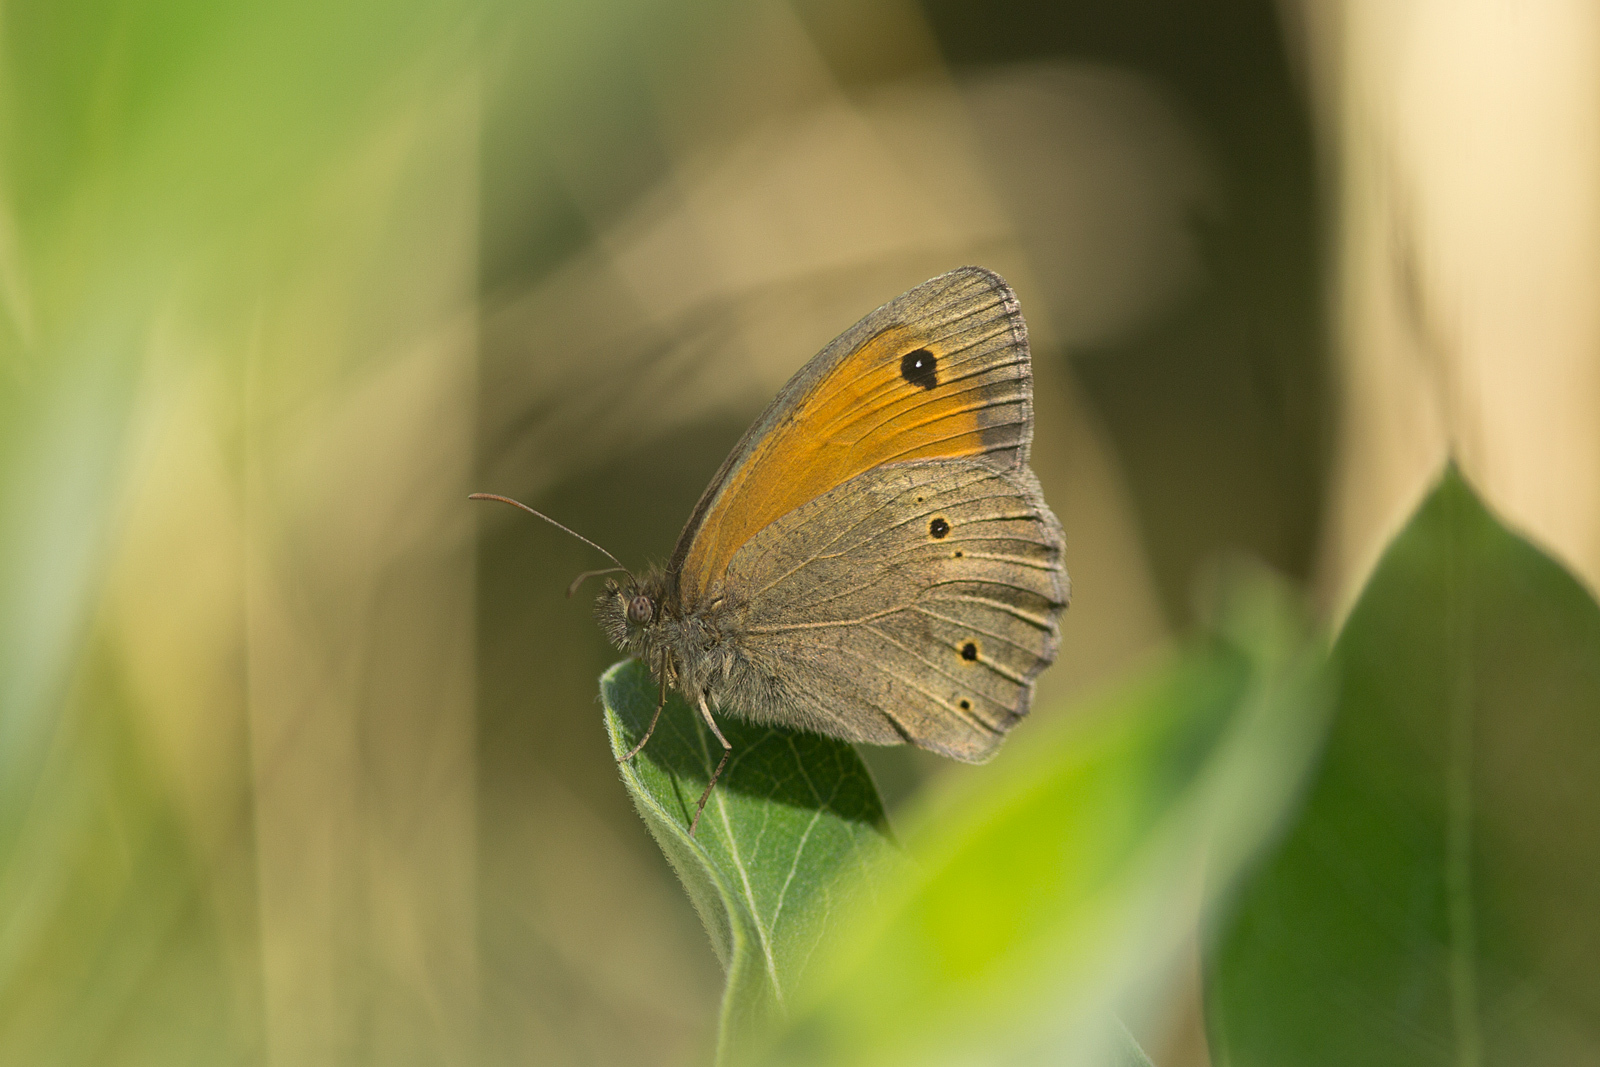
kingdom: Animalia
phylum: Arthropoda
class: Insecta
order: Lepidoptera
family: Nymphalidae
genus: Maniola
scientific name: Maniola jurtina
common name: Meadow brown
